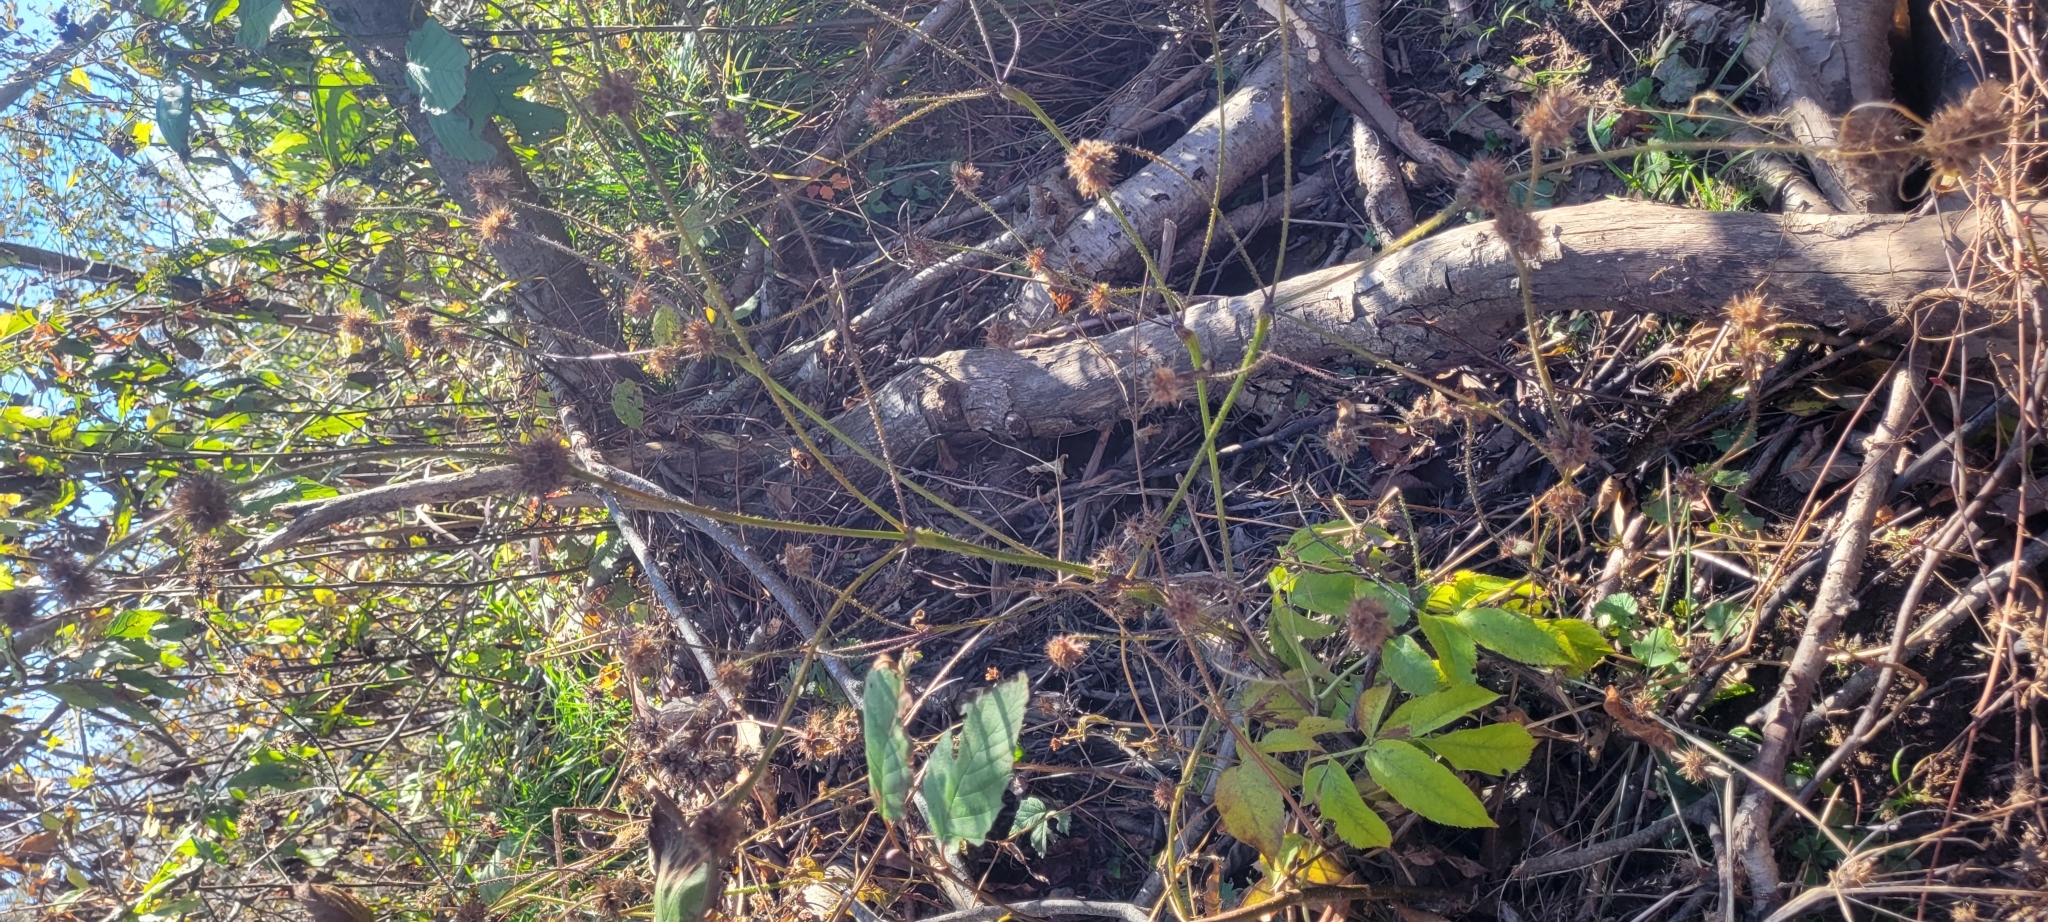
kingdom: Plantae
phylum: Tracheophyta
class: Magnoliopsida
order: Rosales
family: Rosaceae
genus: Comarum
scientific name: Comarum palustre
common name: Marsh cinquefoil
